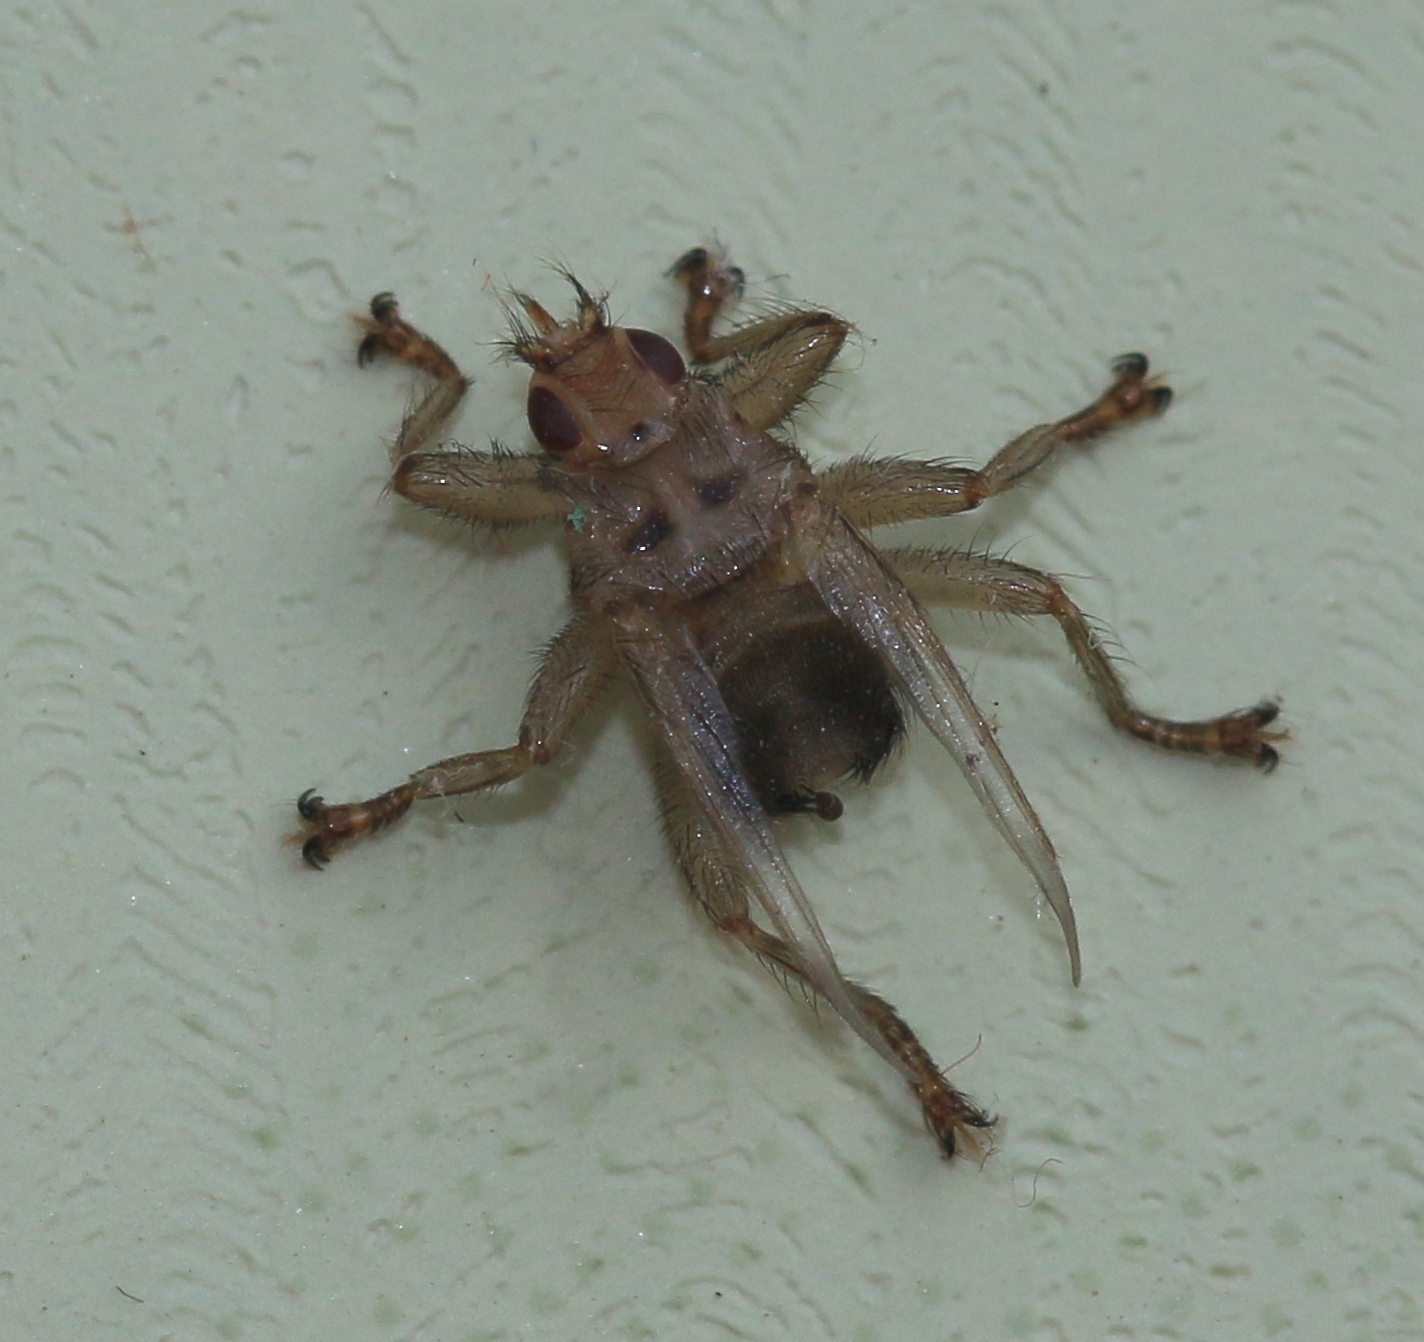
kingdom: Animalia
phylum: Arthropoda
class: Insecta
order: Diptera
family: Hippoboscidae
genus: Crataerina
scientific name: Crataerina hirundinis
